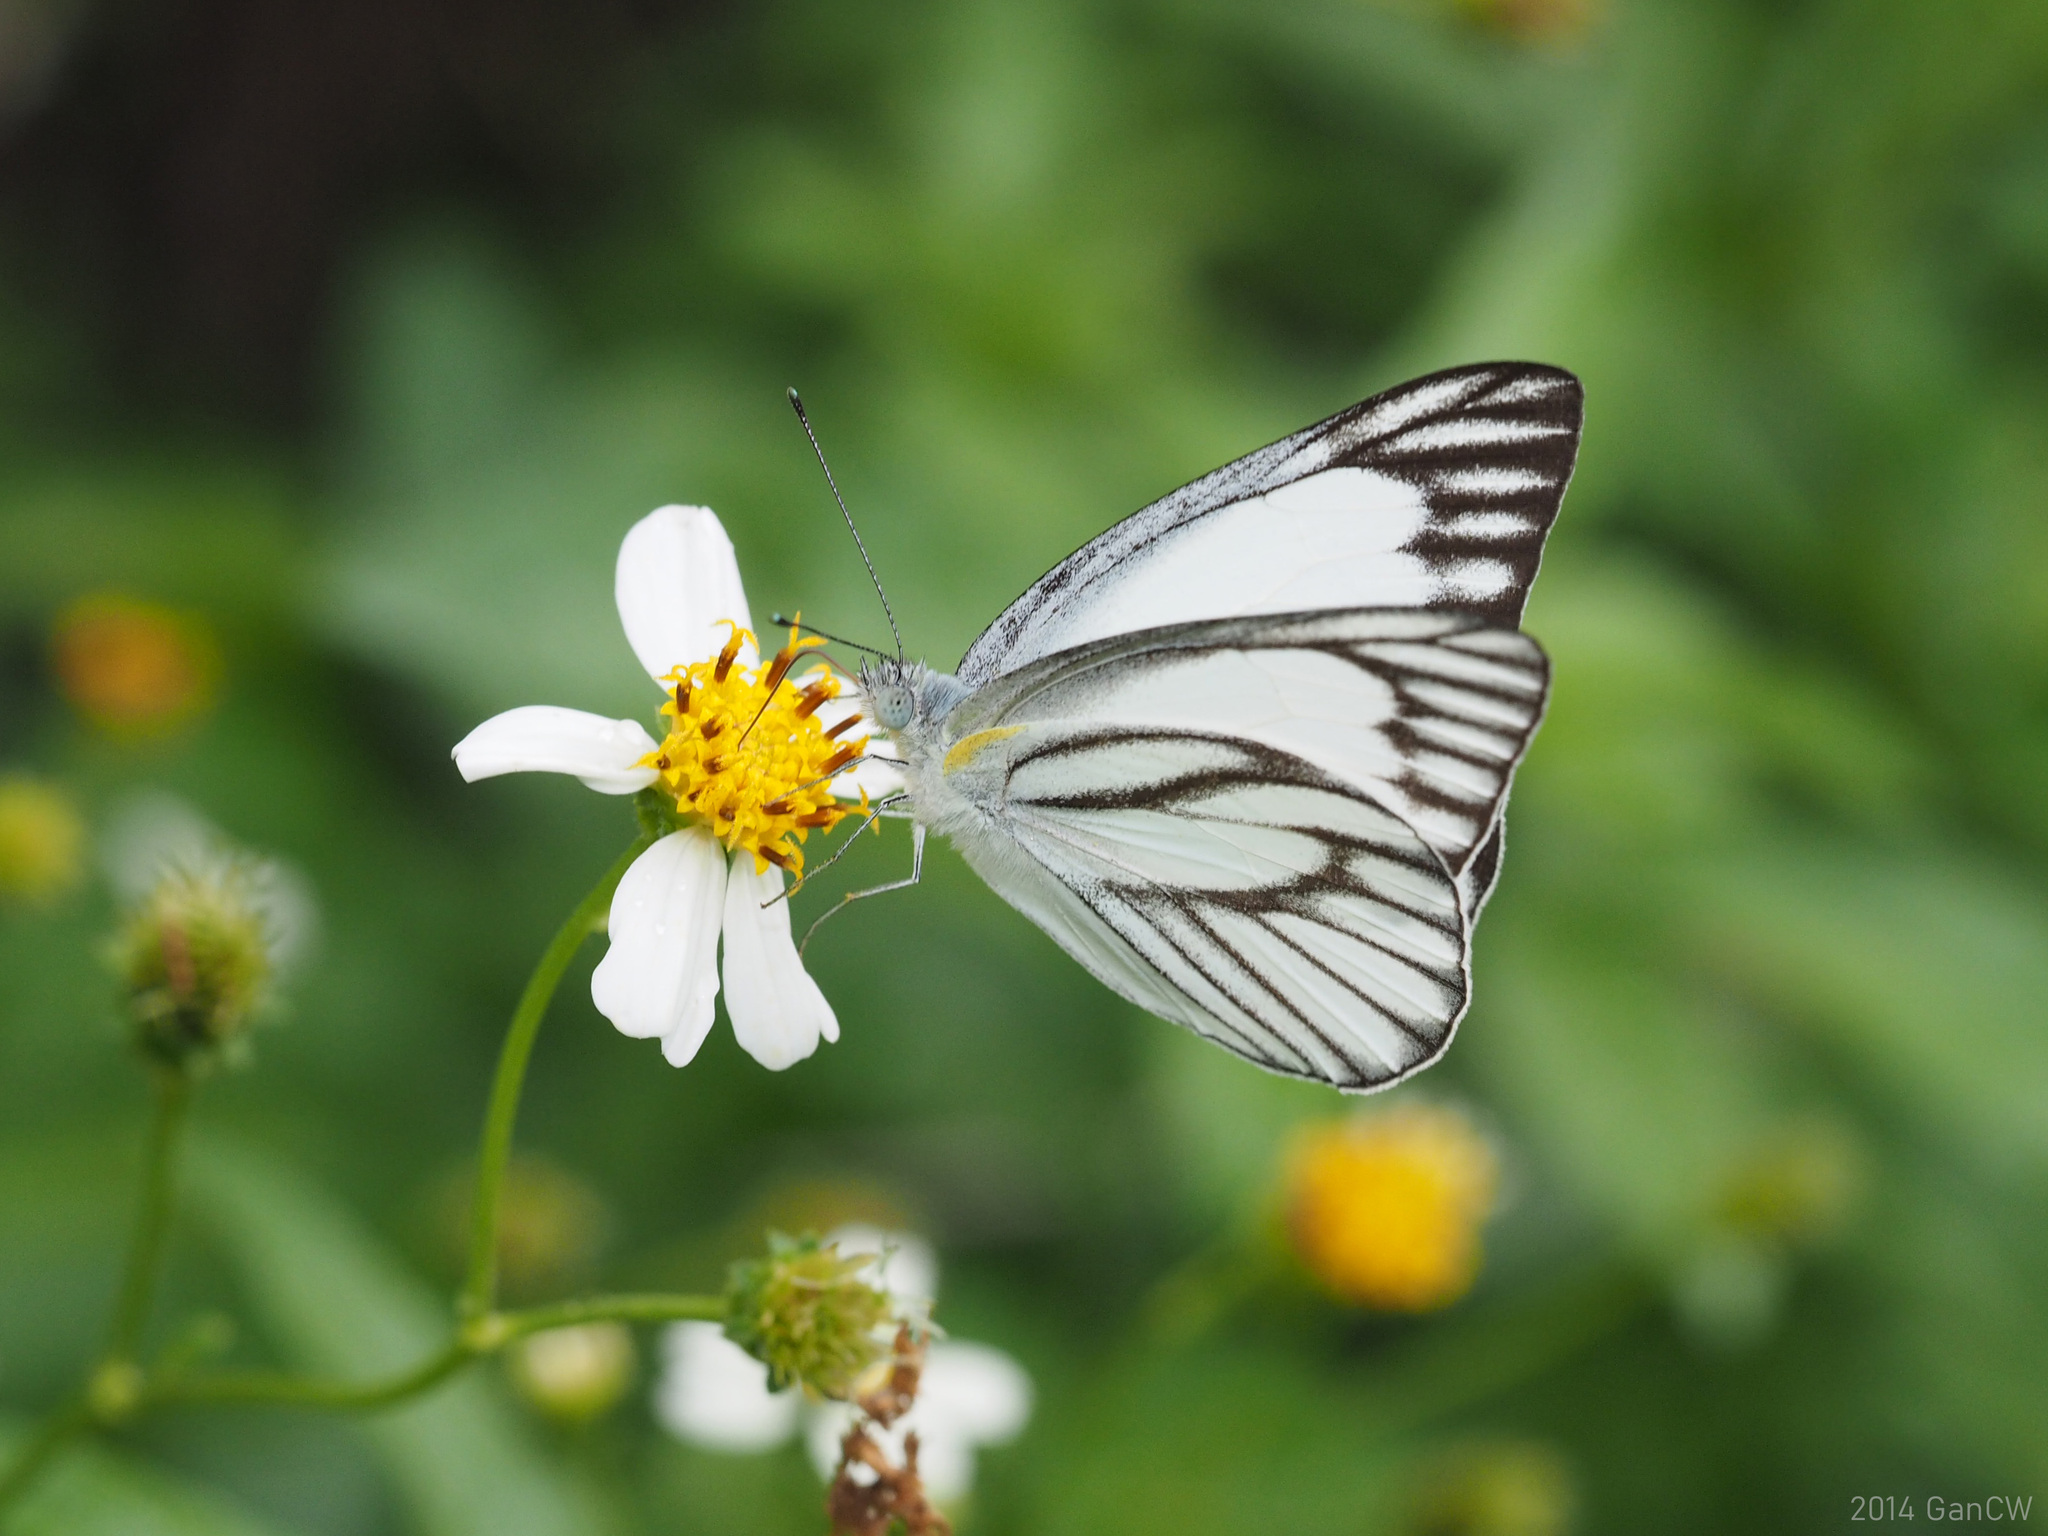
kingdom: Animalia
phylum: Arthropoda
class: Insecta
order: Lepidoptera
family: Pieridae
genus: Appias
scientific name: Appias libythea
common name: Striped albatross
